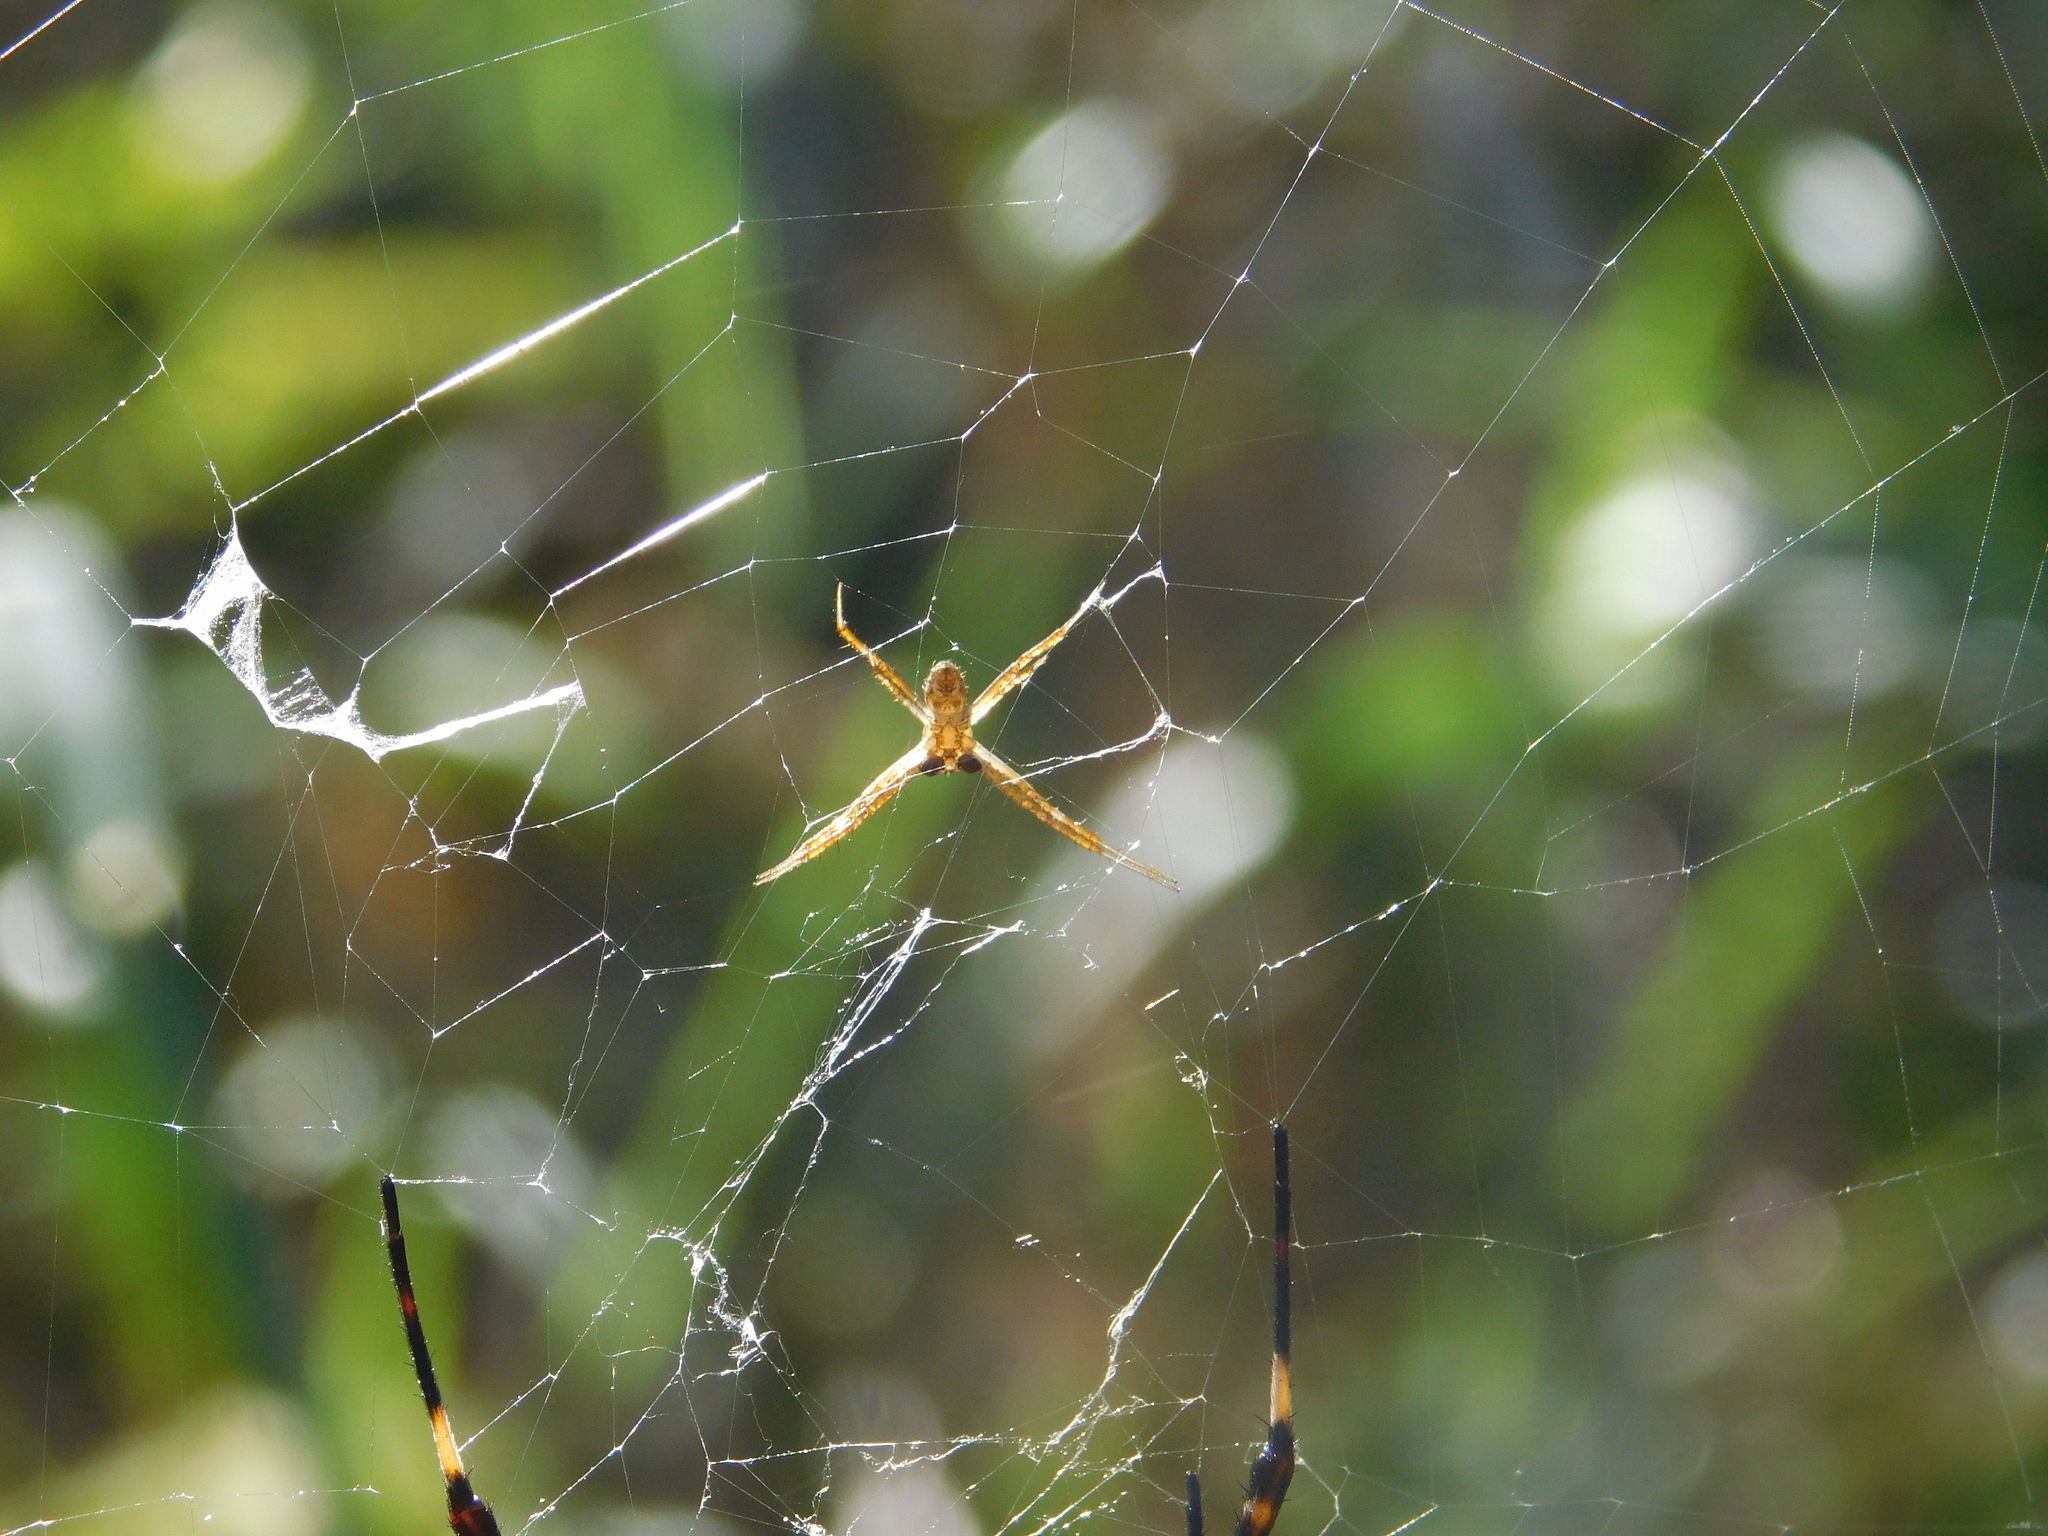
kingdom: Animalia
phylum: Arthropoda
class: Arachnida
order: Araneae
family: Araneidae
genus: Argiope
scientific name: Argiope argentata
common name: Orb weavers
